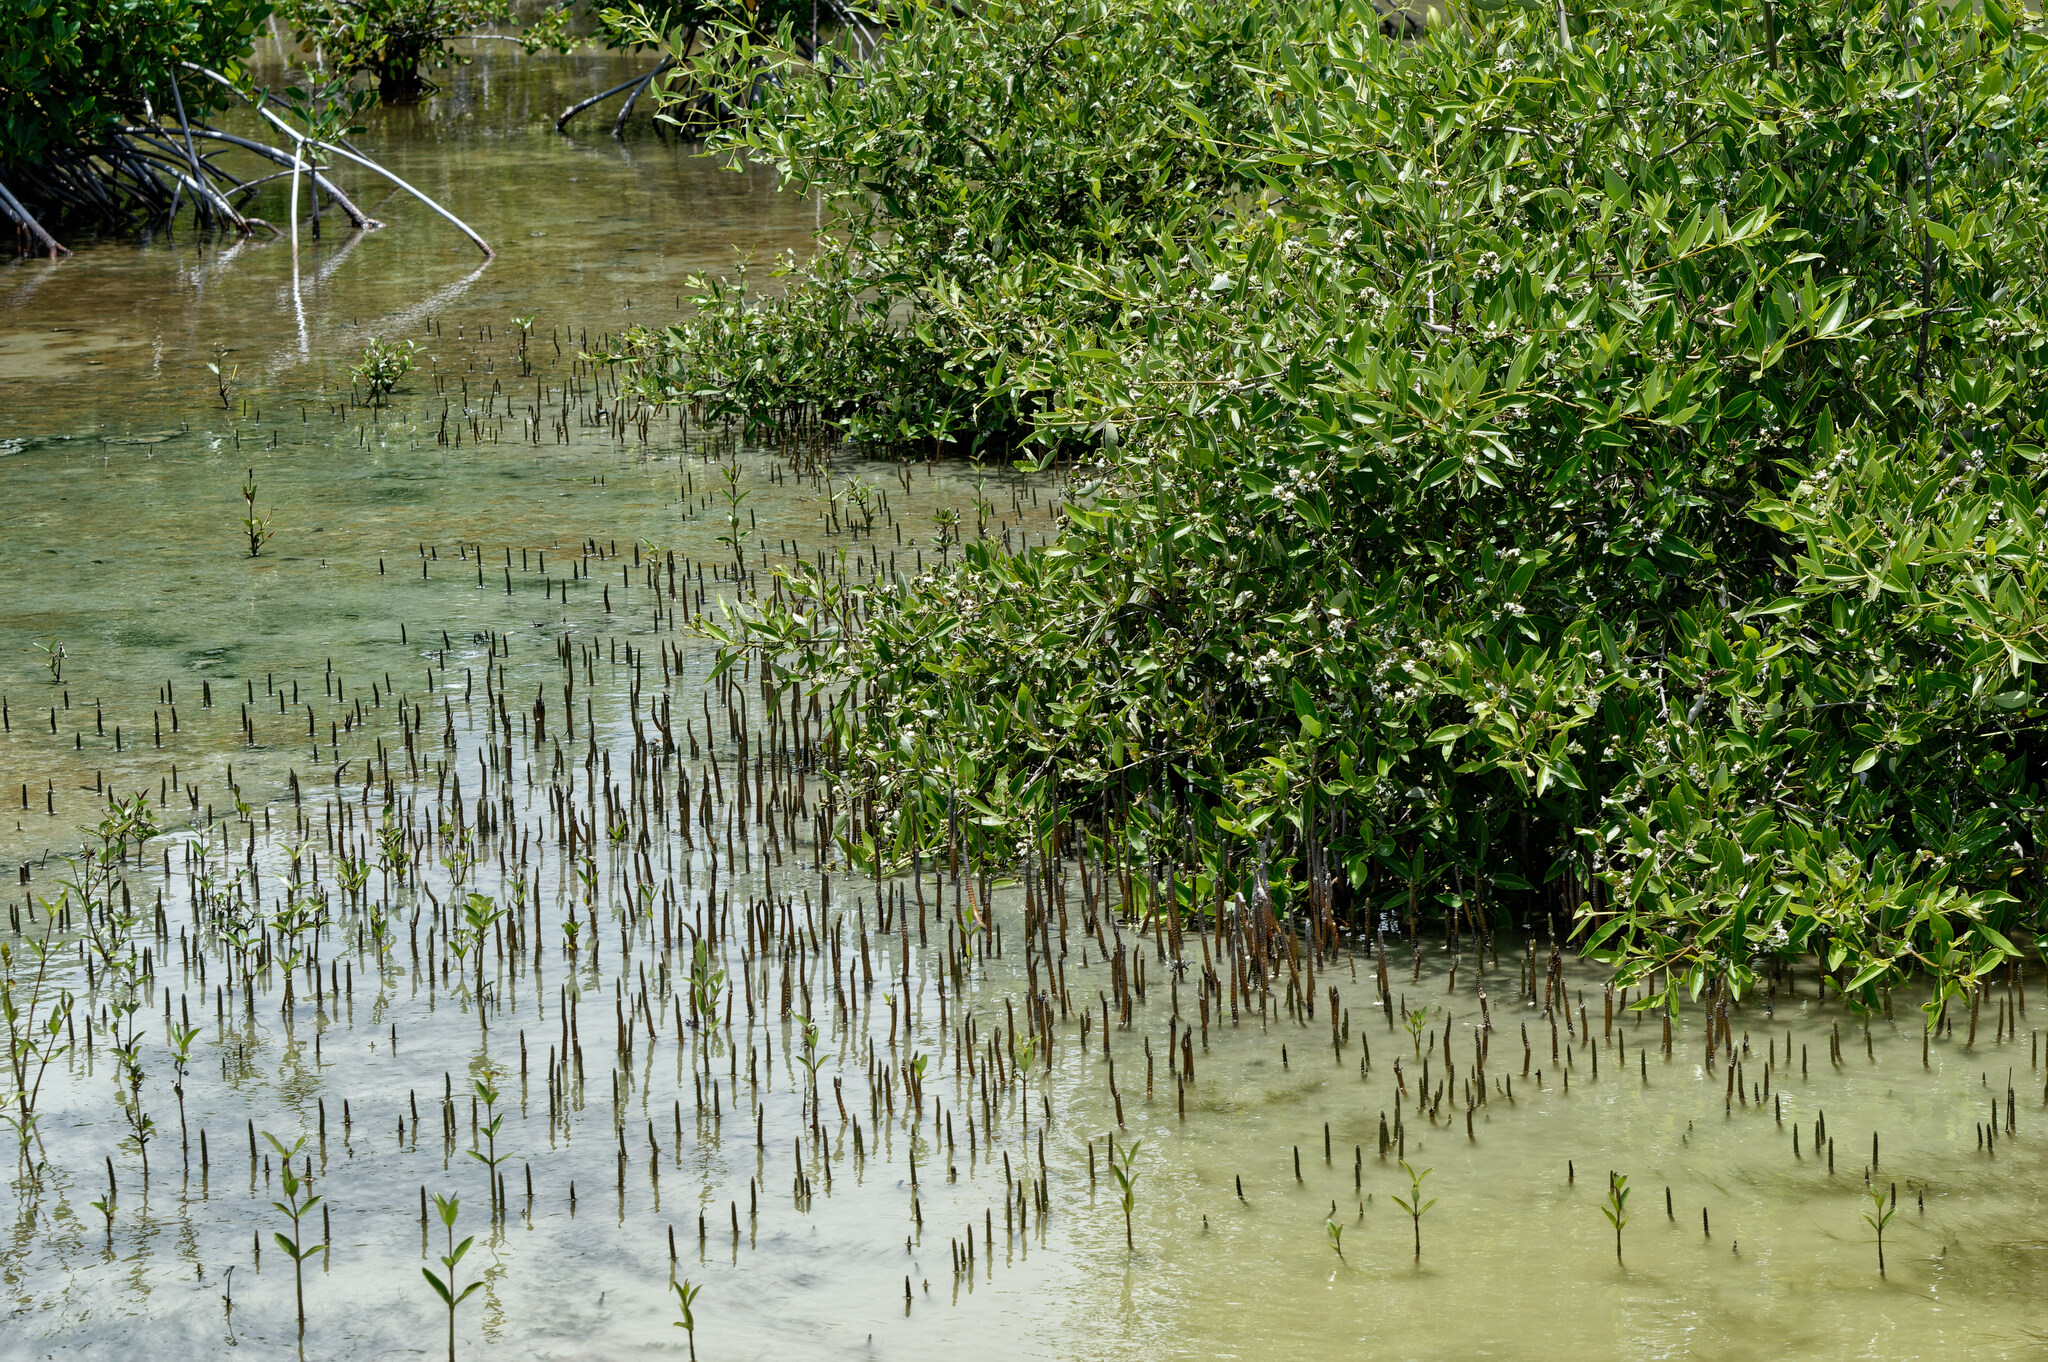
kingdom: Plantae
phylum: Tracheophyta
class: Magnoliopsida
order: Lamiales
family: Acanthaceae
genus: Avicennia
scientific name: Avicennia germinans
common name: Black mangrove
